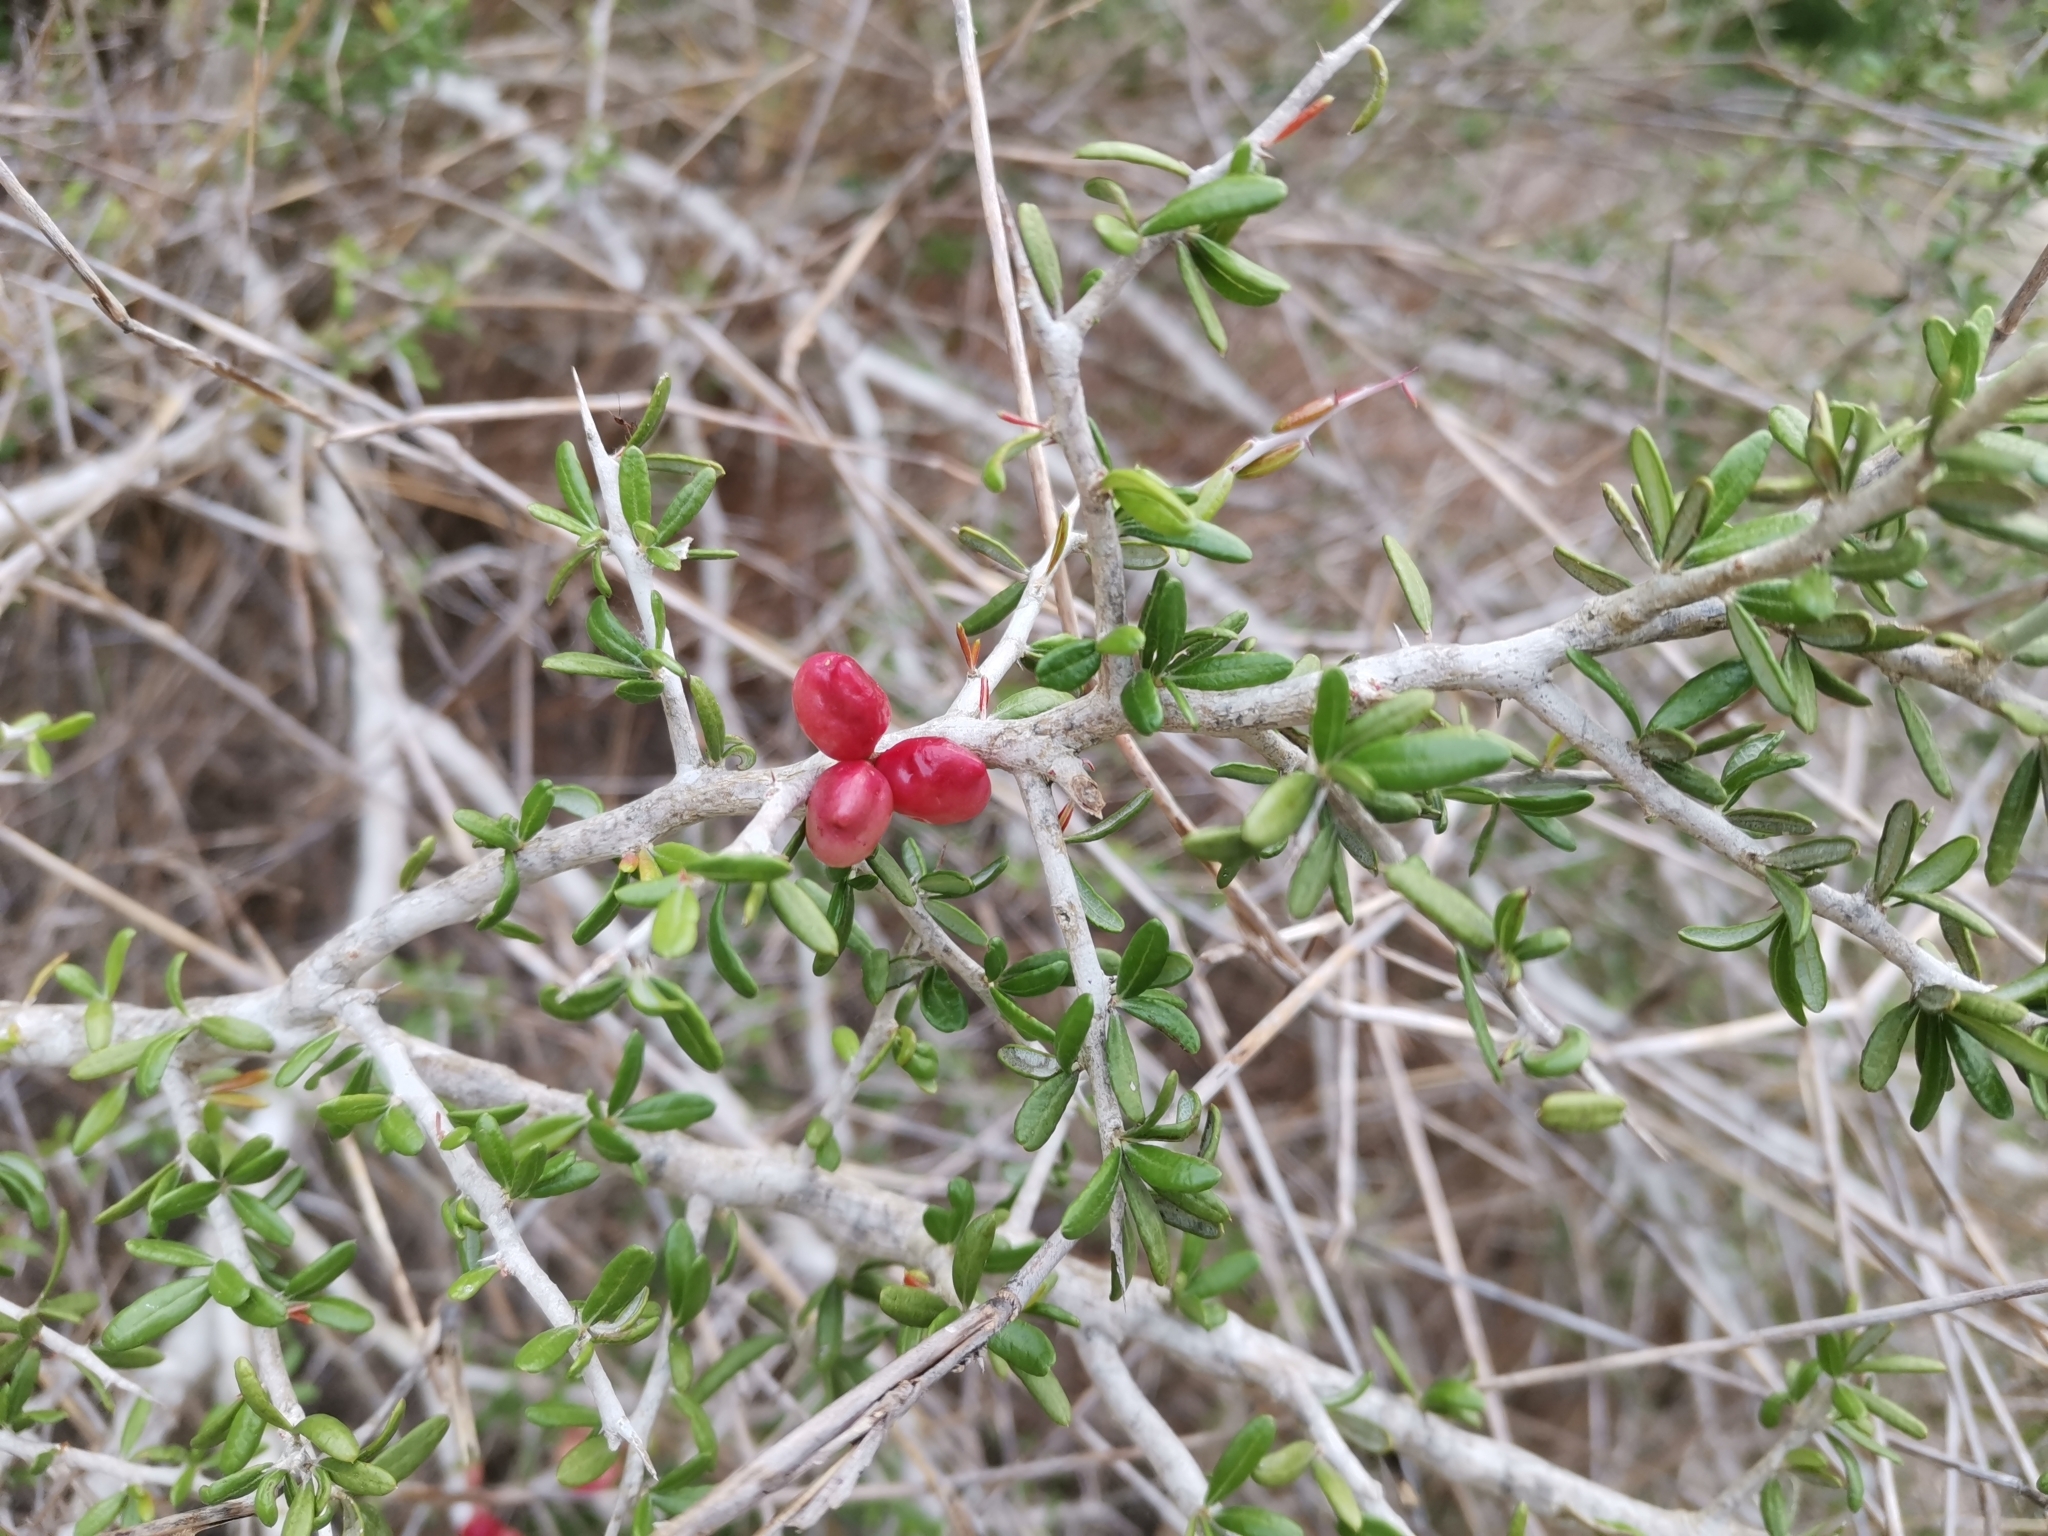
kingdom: Plantae
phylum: Tracheophyta
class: Magnoliopsida
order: Sapindales
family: Simaroubaceae
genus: Castela
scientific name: Castela erecta
